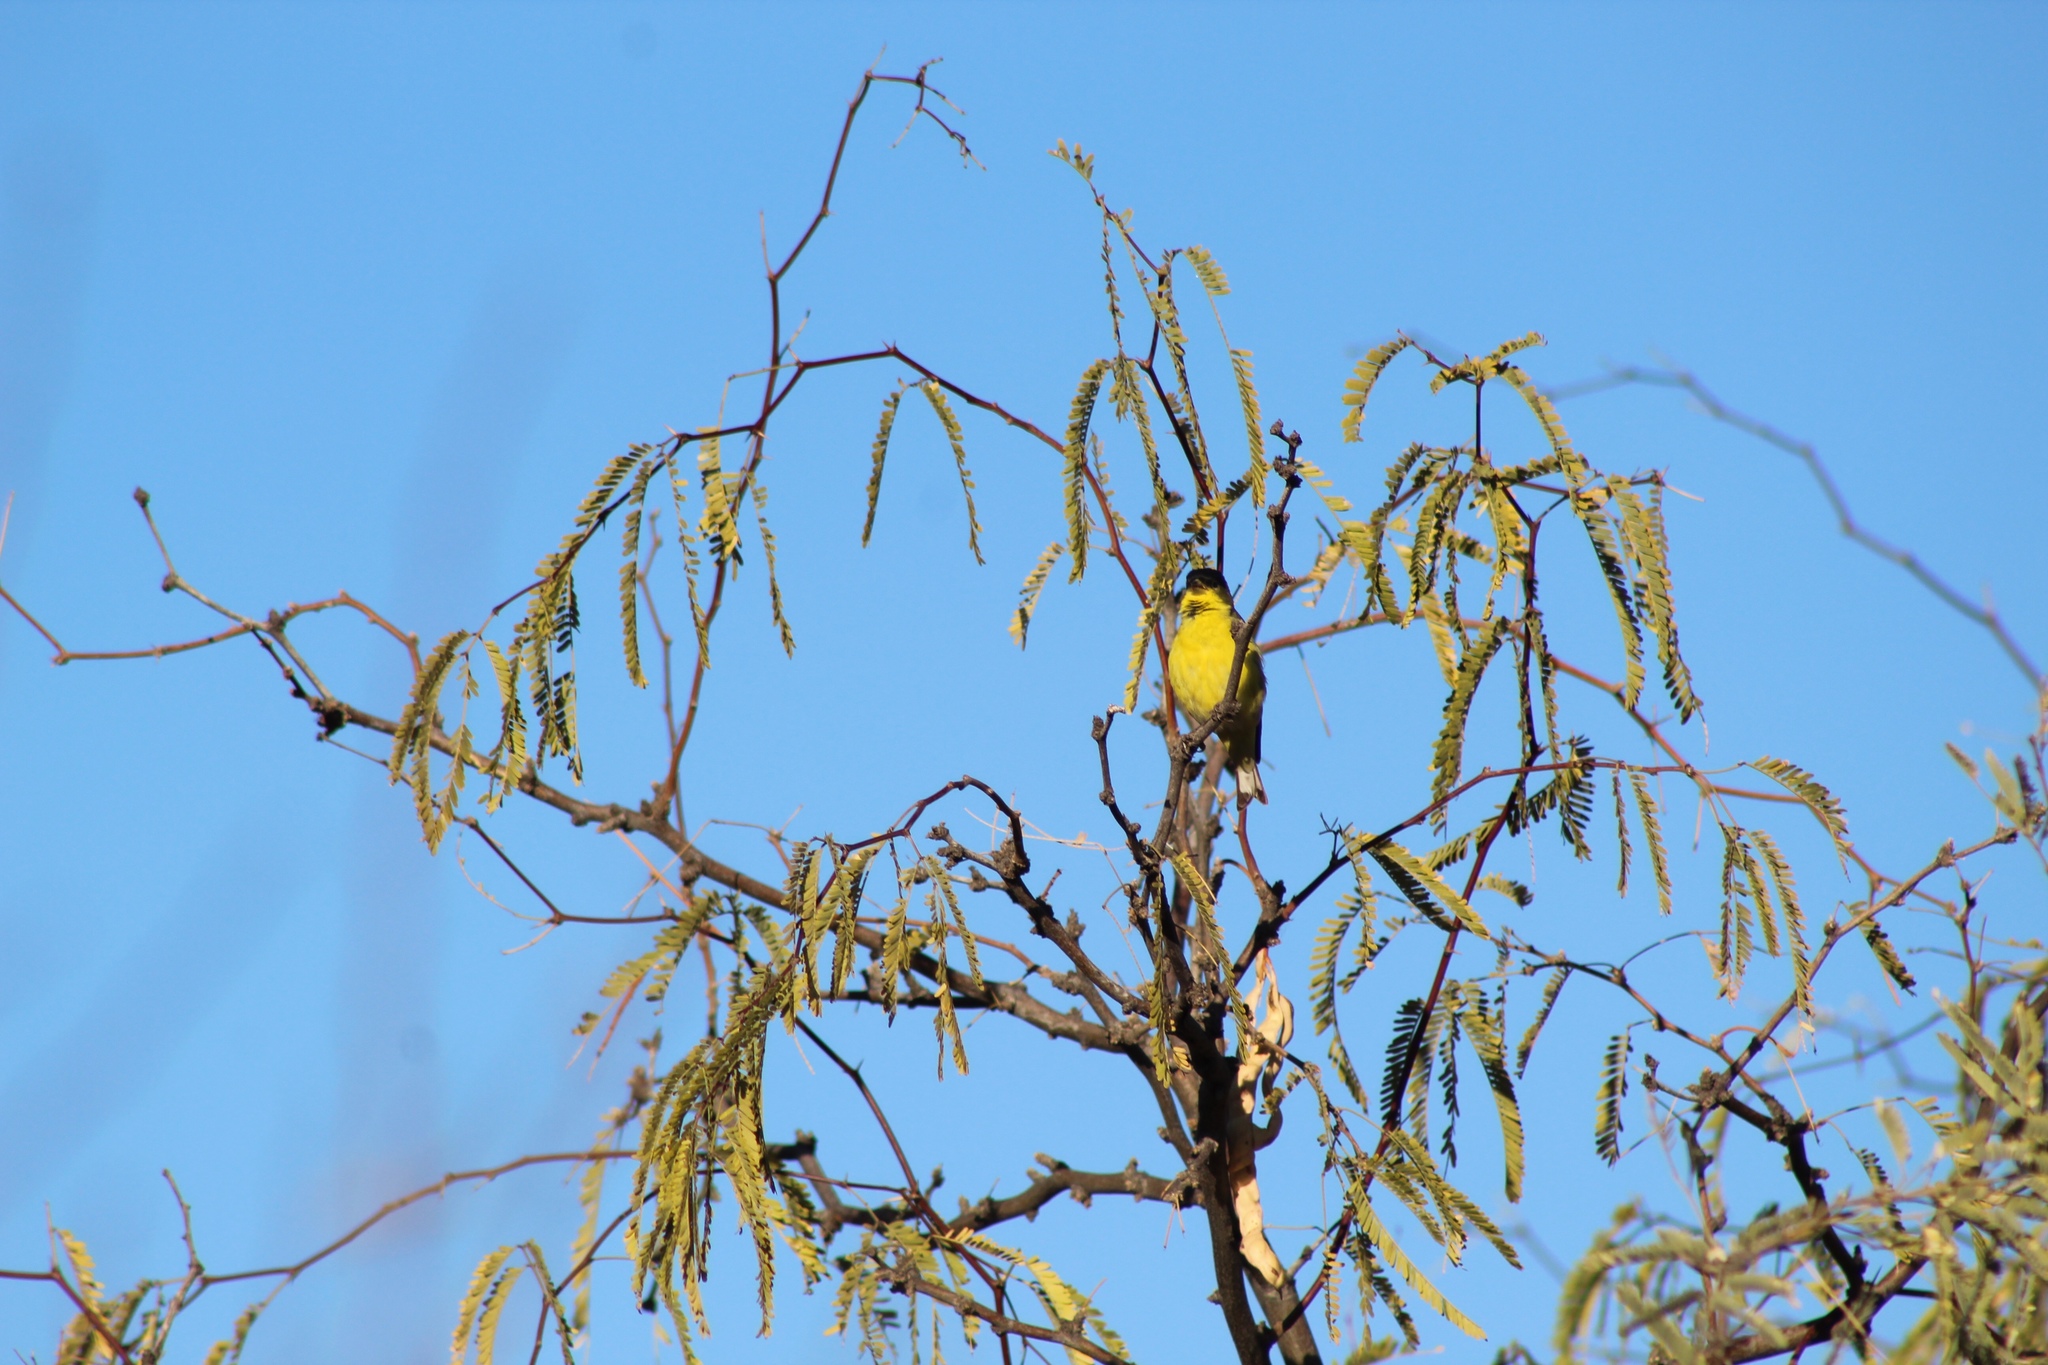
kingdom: Animalia
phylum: Chordata
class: Aves
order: Passeriformes
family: Fringillidae
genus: Spinus
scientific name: Spinus psaltria
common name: Lesser goldfinch
